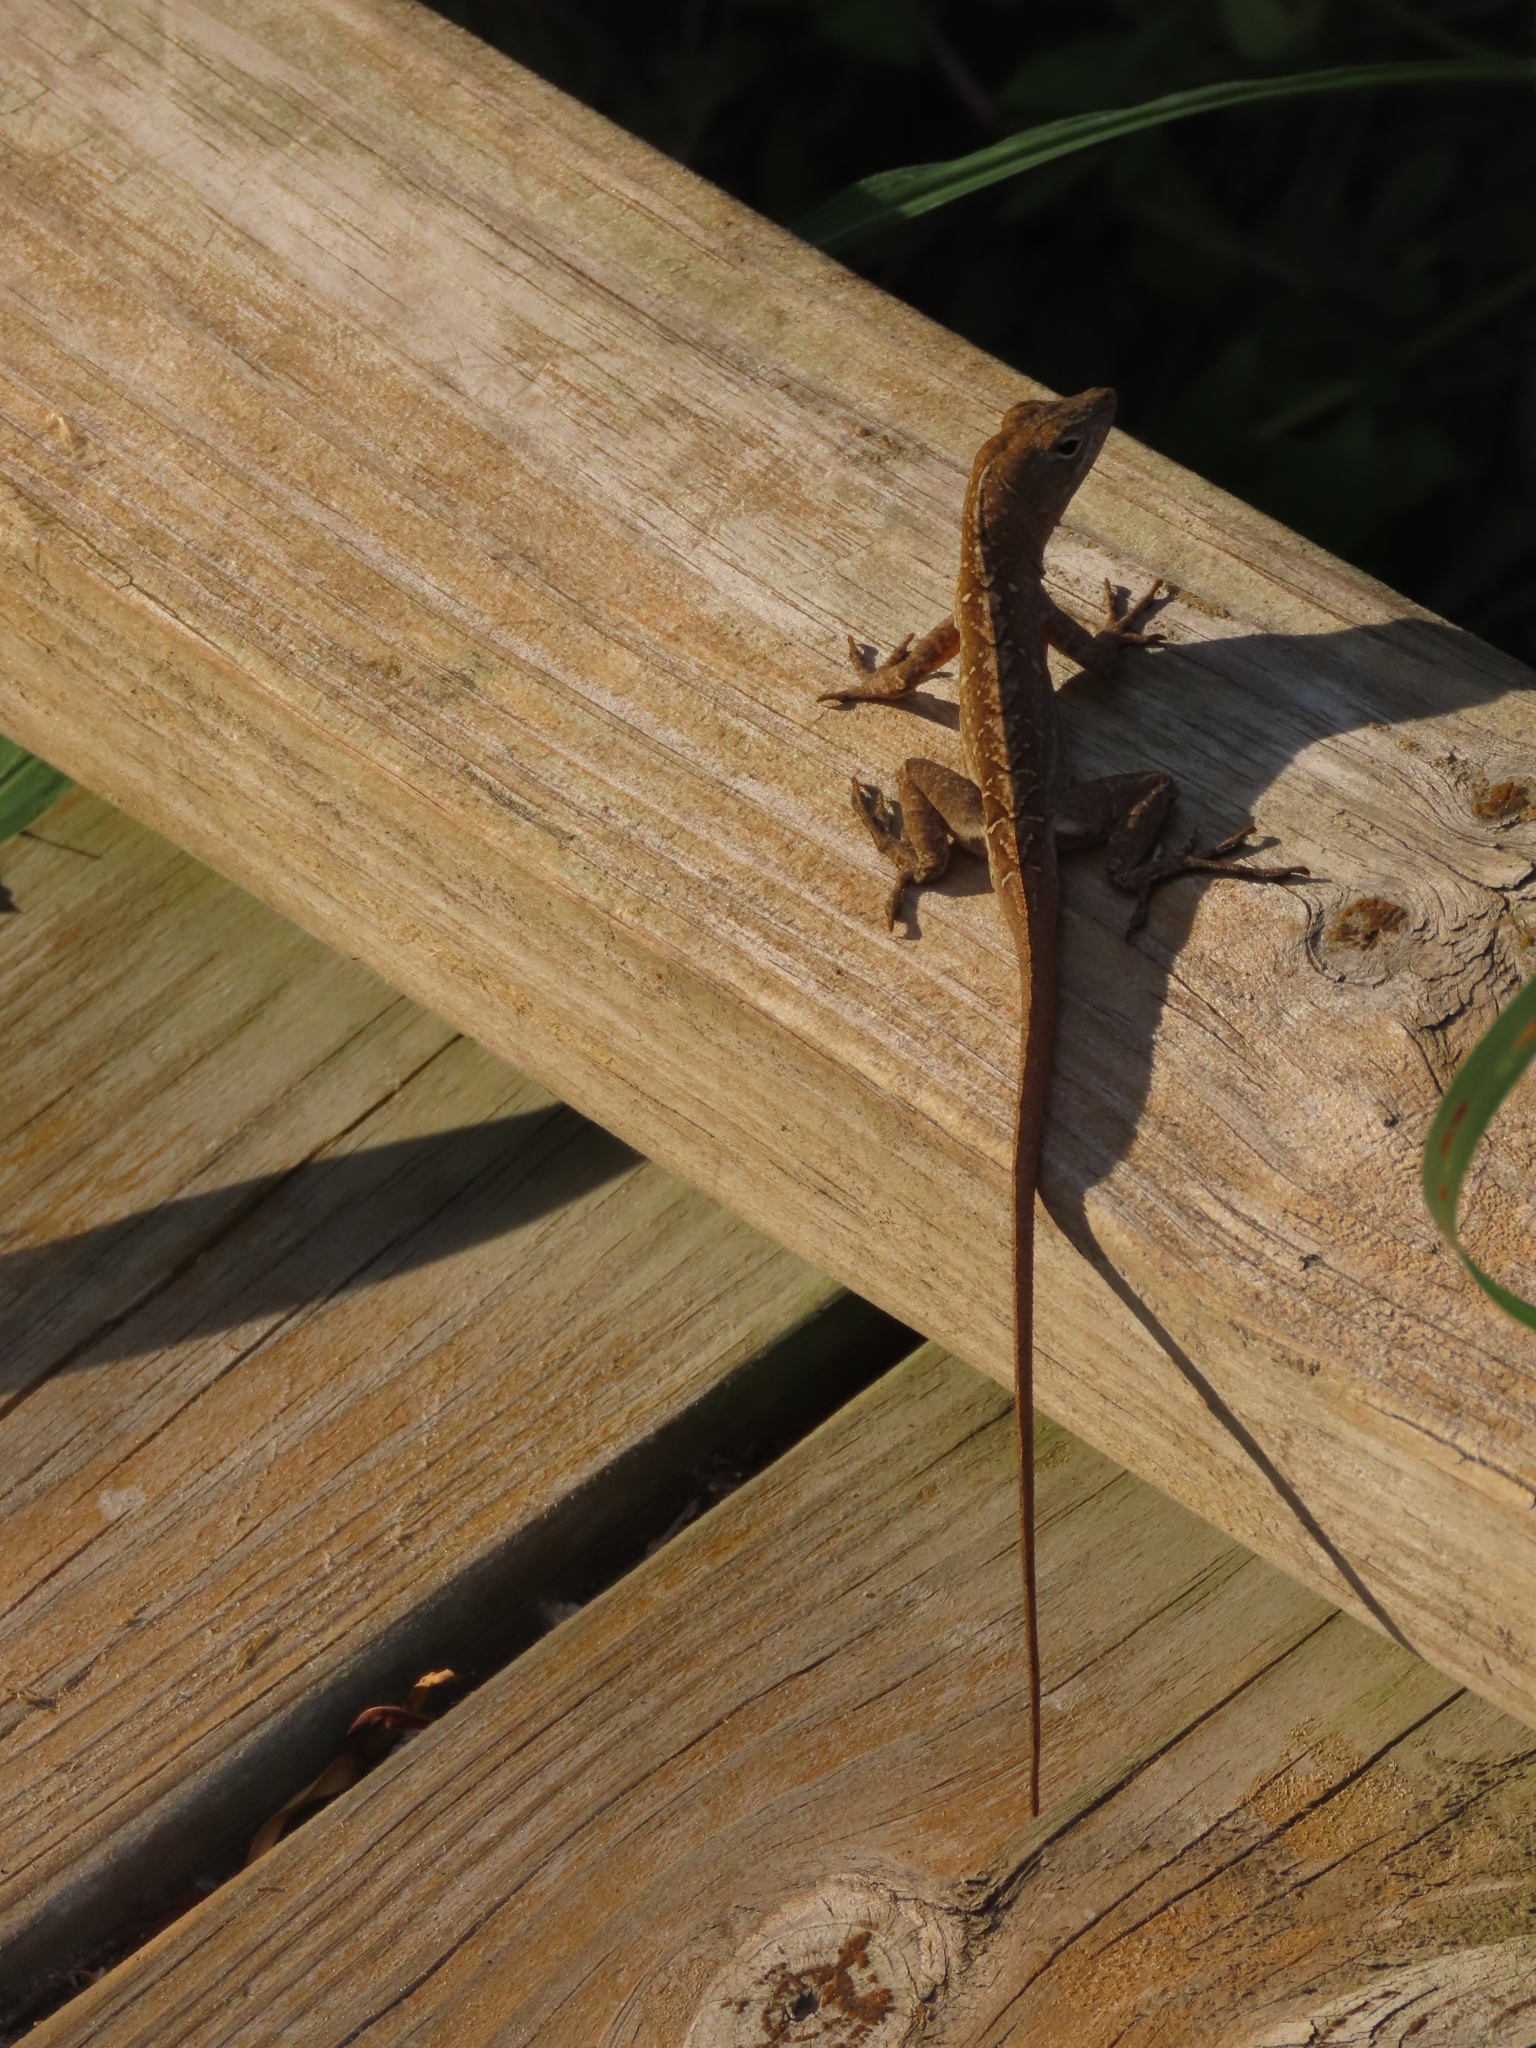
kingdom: Animalia
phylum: Chordata
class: Squamata
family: Dactyloidae
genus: Anolis
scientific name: Anolis sagrei
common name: Brown anole
